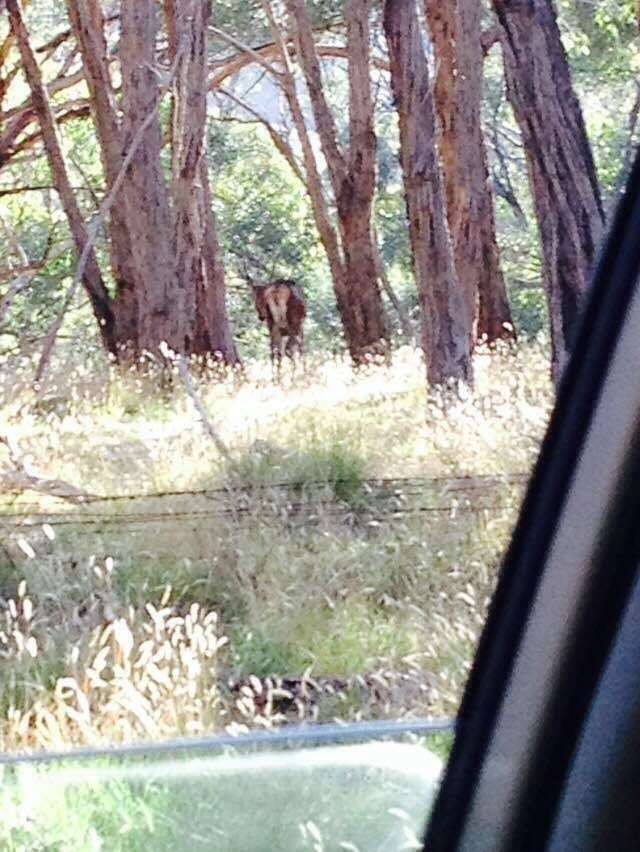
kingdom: Animalia
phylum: Chordata
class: Mammalia
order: Artiodactyla
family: Cervidae
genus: Cervus
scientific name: Cervus elaphus
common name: Red deer
